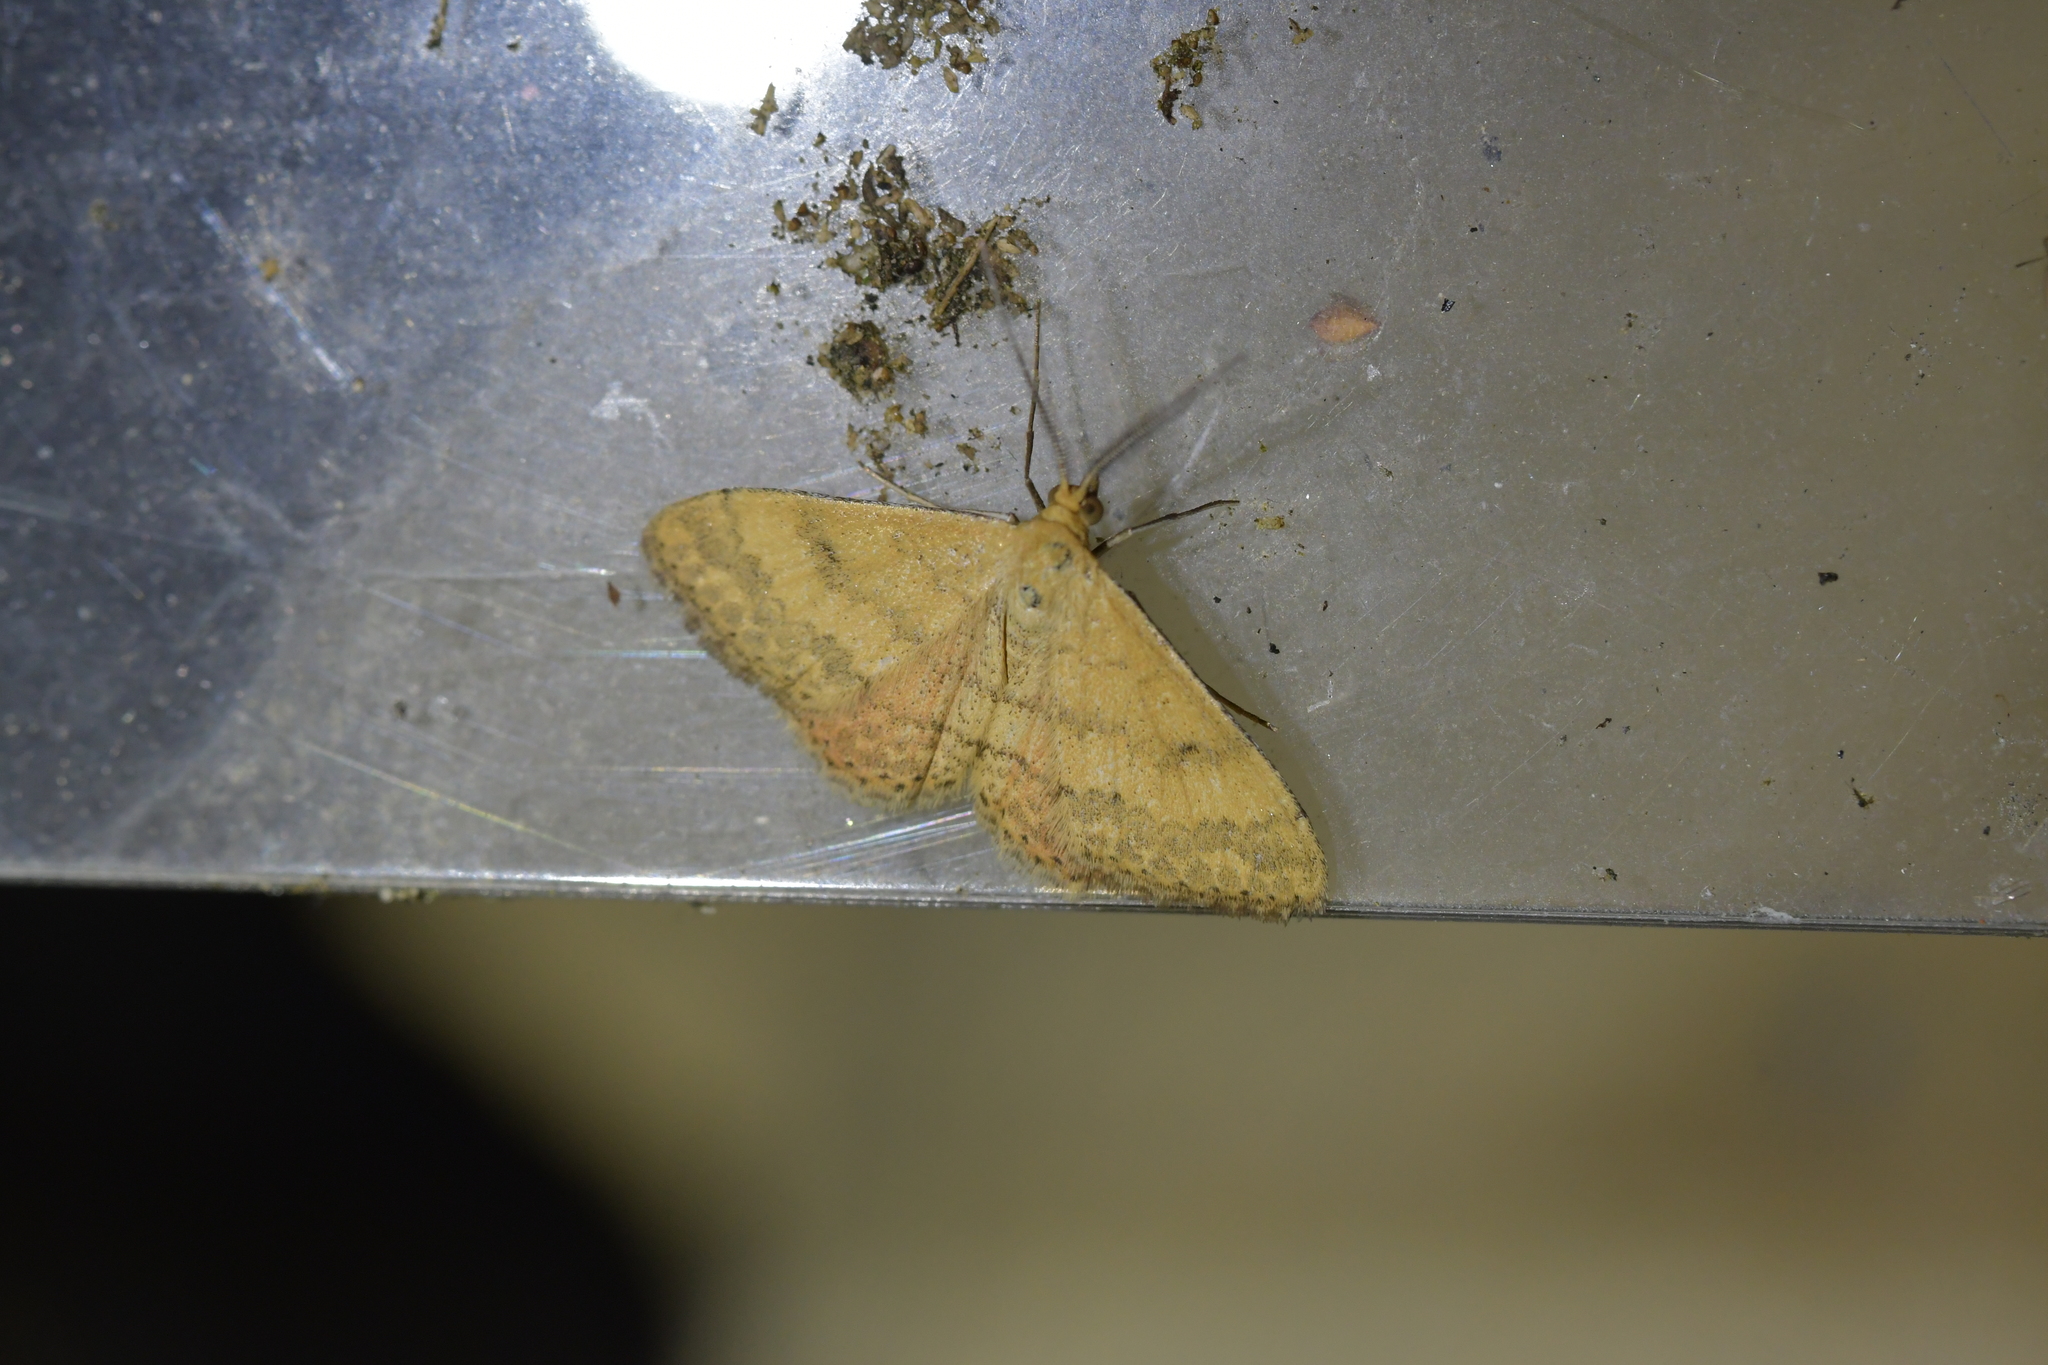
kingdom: Animalia
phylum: Arthropoda
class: Insecta
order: Lepidoptera
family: Geometridae
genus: Scopula
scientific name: Scopula rubraria
